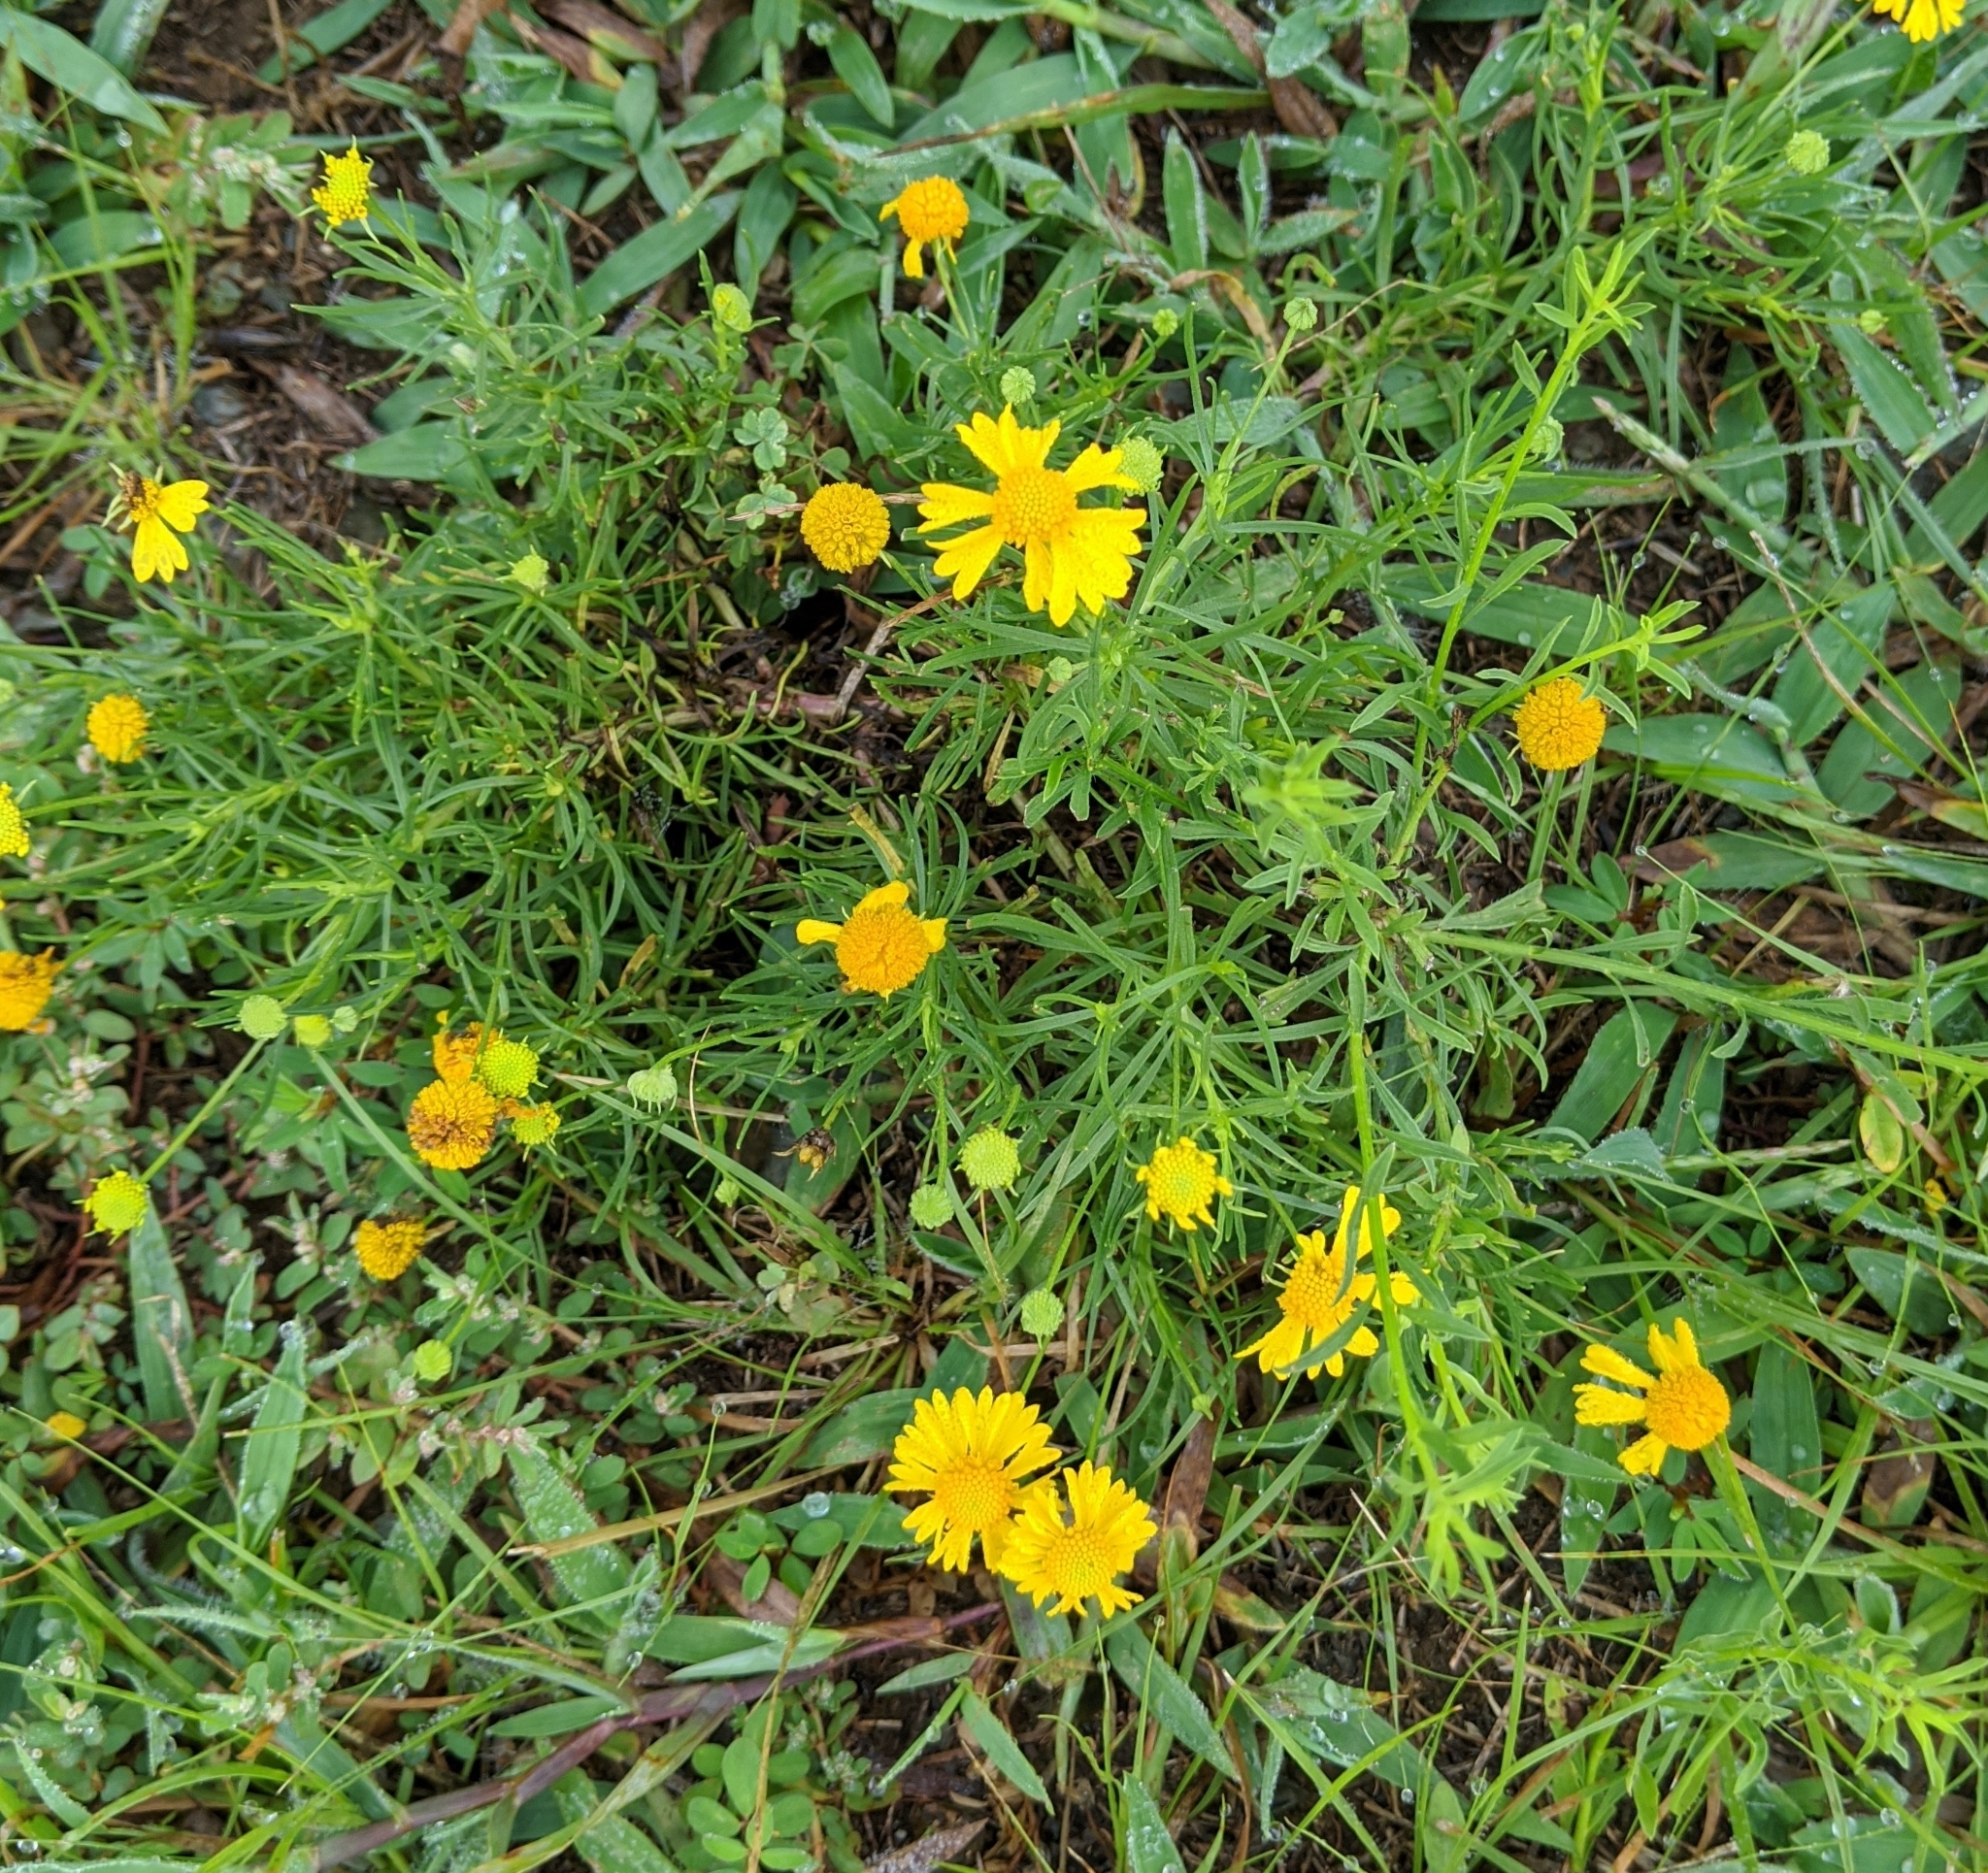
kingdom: Plantae
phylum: Tracheophyta
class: Magnoliopsida
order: Asterales
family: Asteraceae
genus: Helenium
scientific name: Helenium amarum
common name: Bitter sneezeweed
